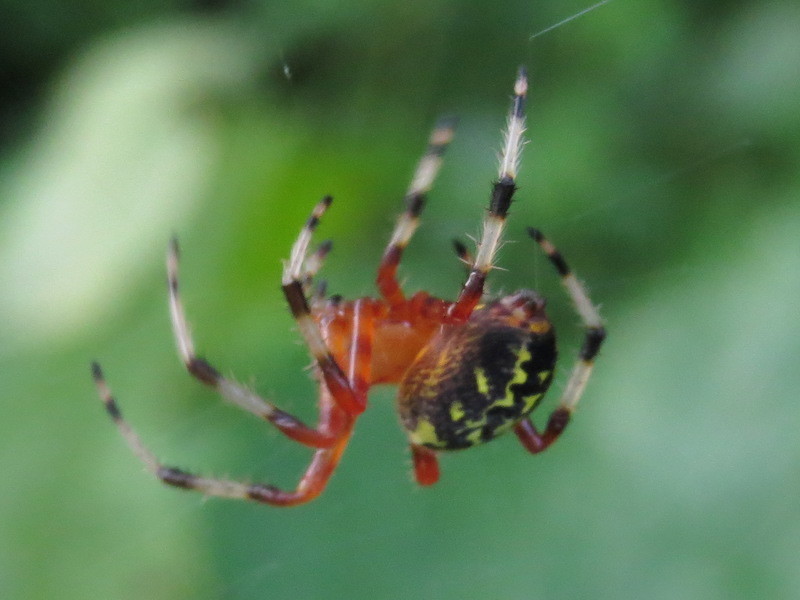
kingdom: Animalia
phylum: Arthropoda
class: Arachnida
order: Araneae
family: Araneidae
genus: Araneus
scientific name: Araneus marmoreus
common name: Marbled orbweaver
